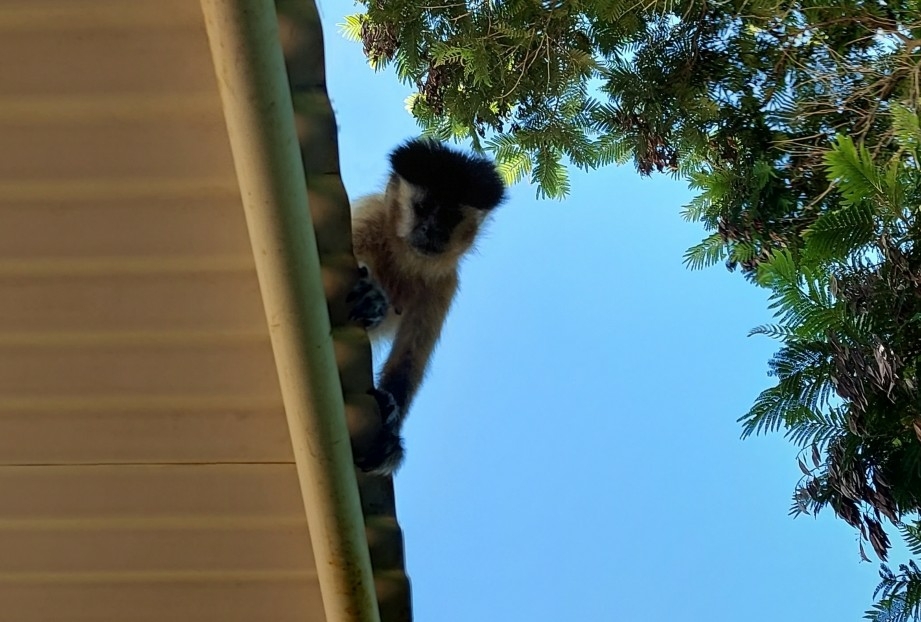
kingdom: Animalia
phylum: Chordata
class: Mammalia
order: Primates
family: Cebidae
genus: Sapajus
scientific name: Sapajus libidinosus
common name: Bearded capuchin
